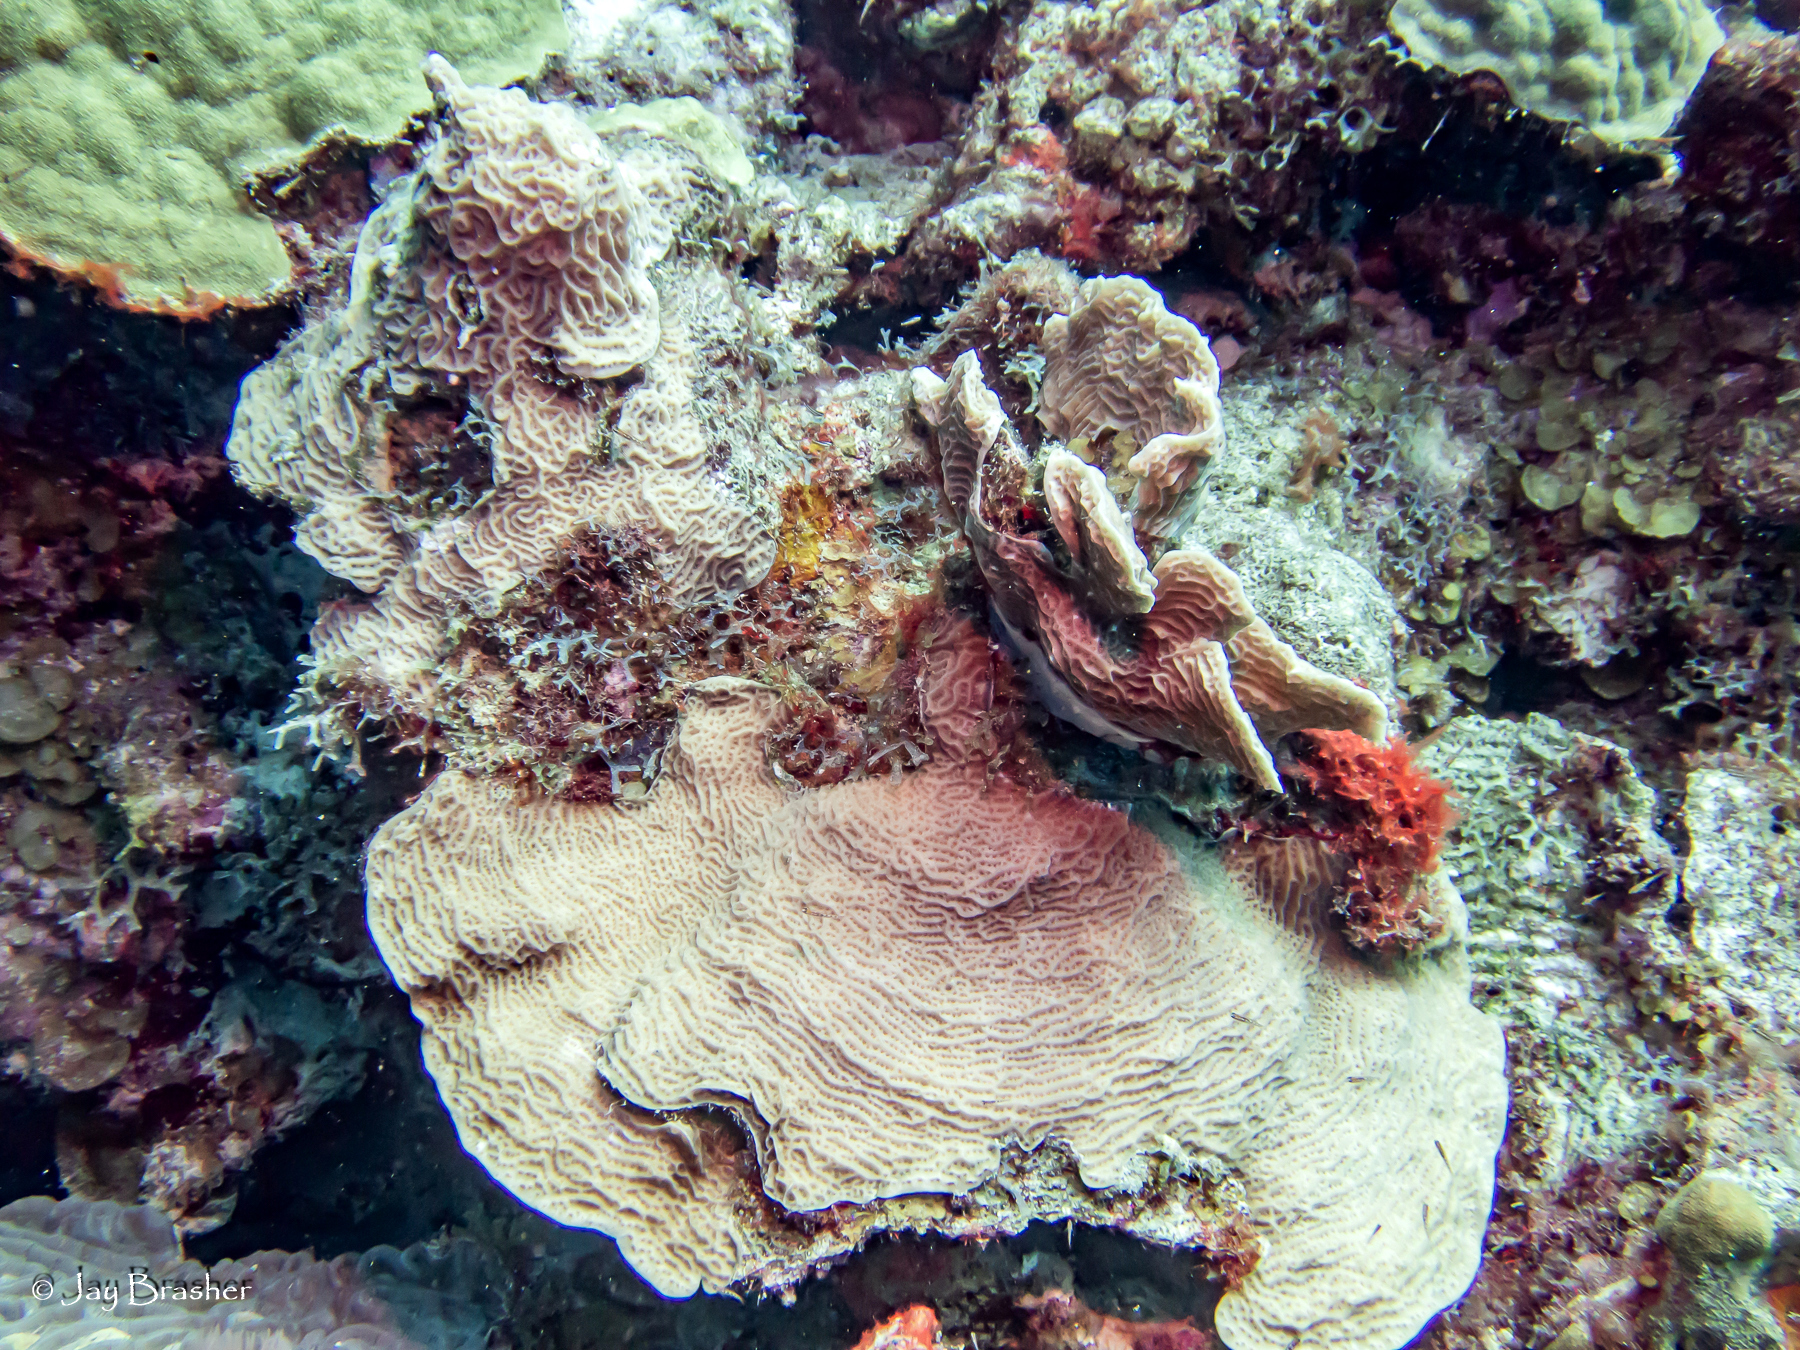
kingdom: Animalia
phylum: Cnidaria
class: Anthozoa
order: Scleractinia
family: Agariciidae
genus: Agaricia
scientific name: Agaricia agaricites
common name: Lettuce coral
